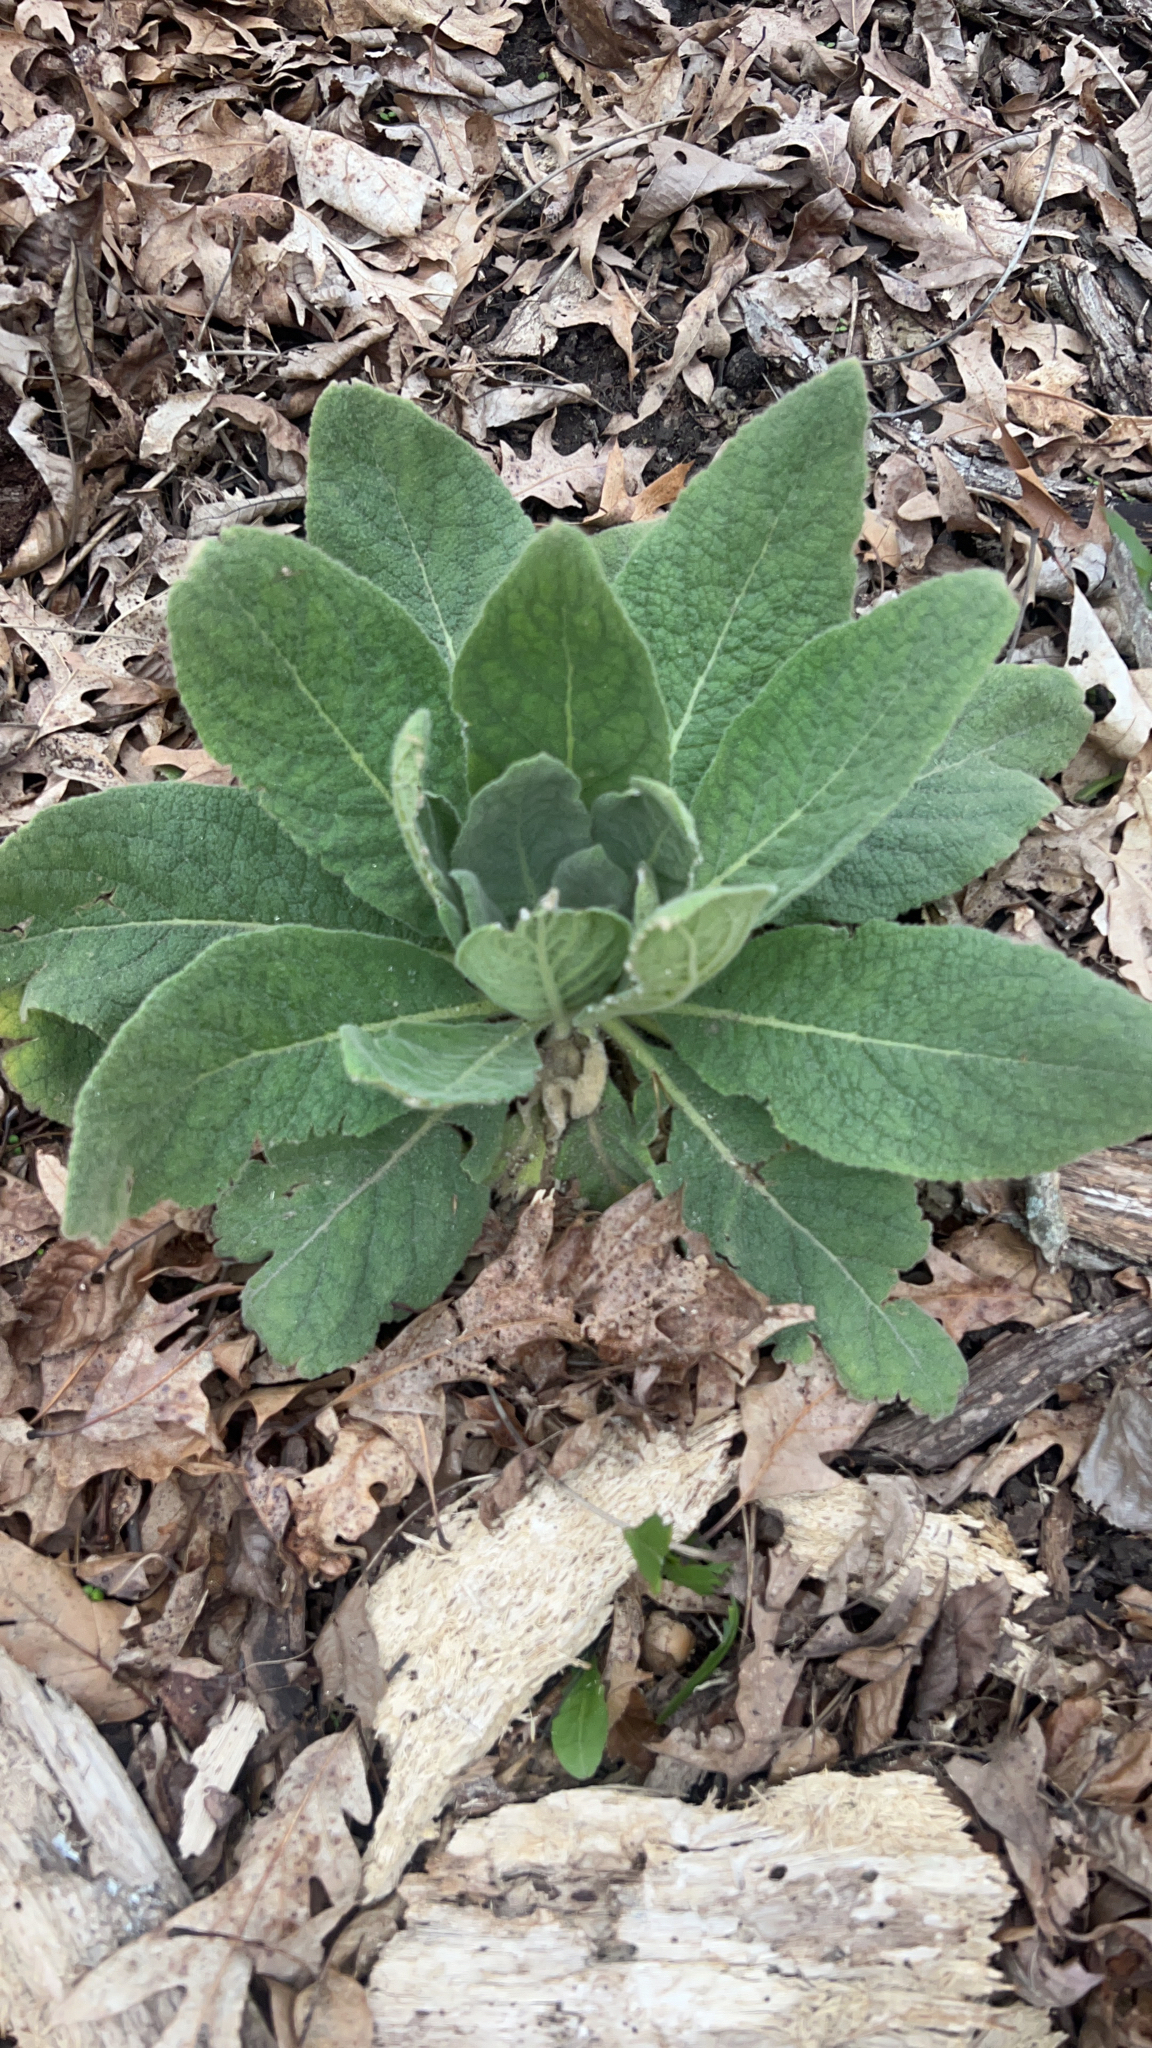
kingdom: Plantae
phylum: Tracheophyta
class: Magnoliopsida
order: Lamiales
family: Scrophulariaceae
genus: Verbascum
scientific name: Verbascum thapsus
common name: Common mullein
